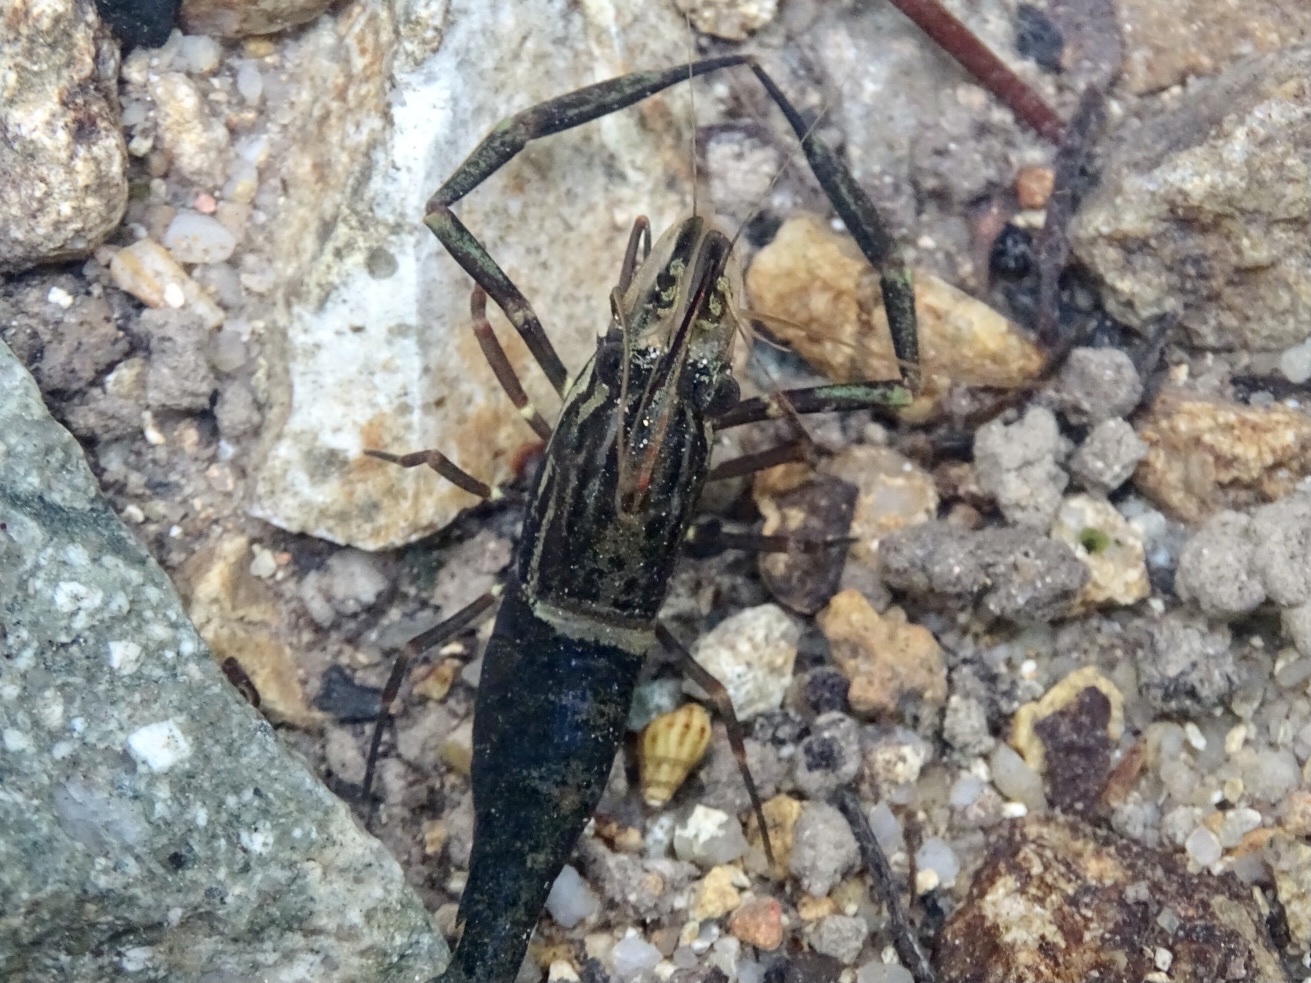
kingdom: Animalia
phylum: Arthropoda
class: Malacostraca
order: Decapoda
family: Palaemonidae
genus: Macrobrachium
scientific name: Macrobrachium laevis
